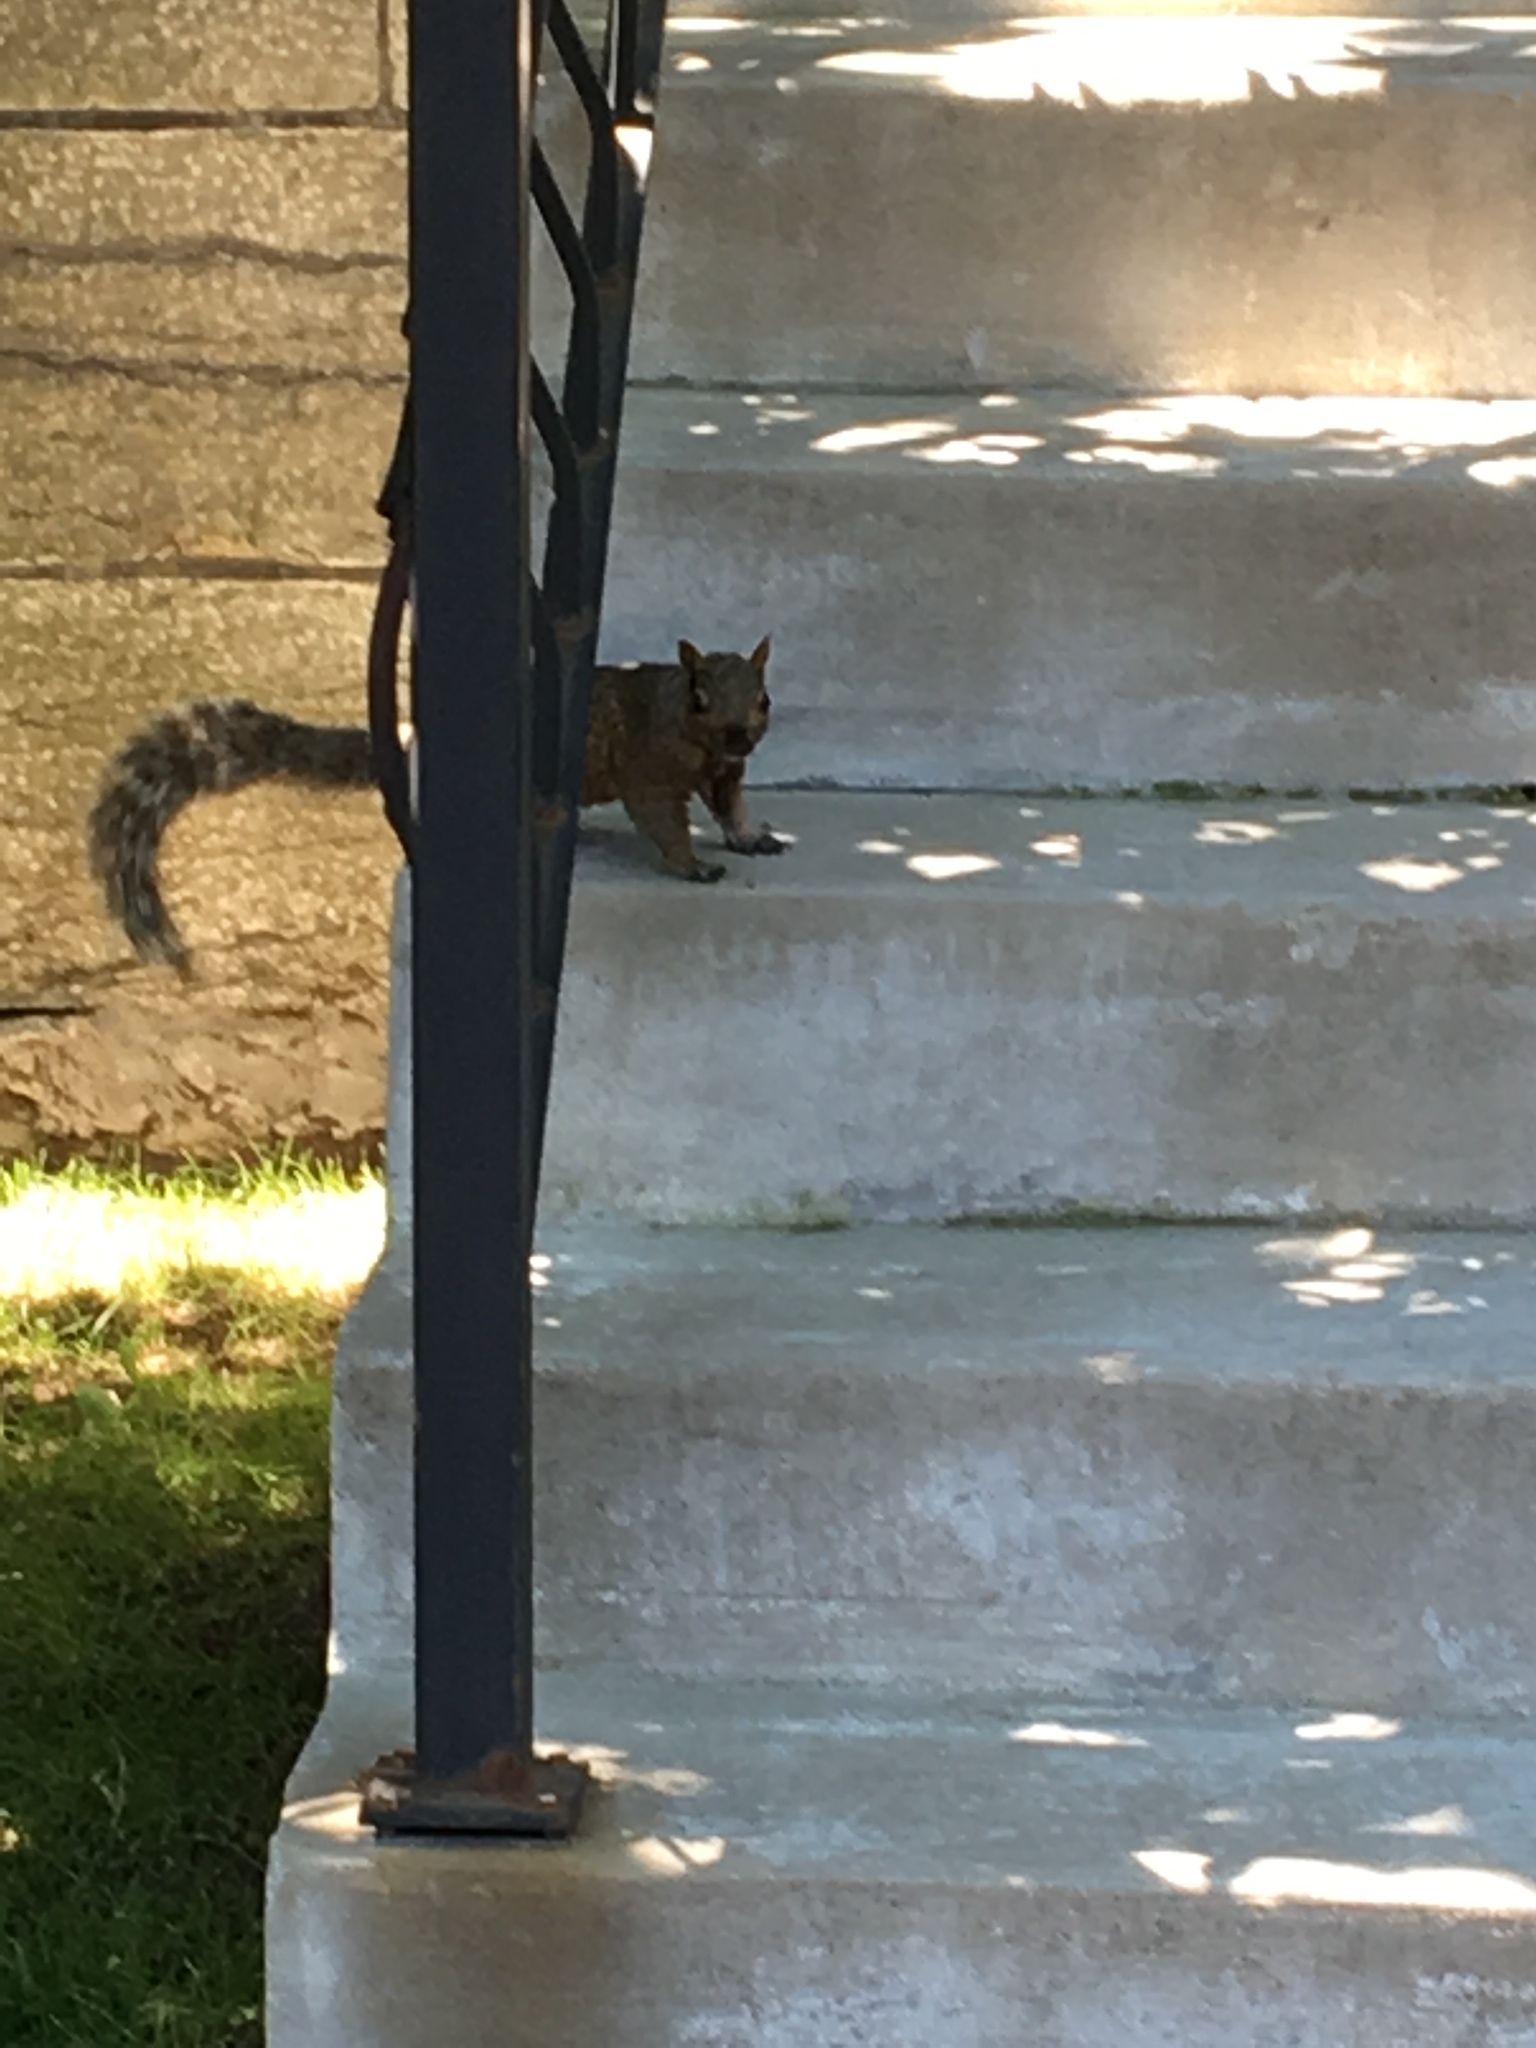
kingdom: Animalia
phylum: Chordata
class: Mammalia
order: Rodentia
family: Sciuridae
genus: Sciurus
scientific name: Sciurus carolinensis
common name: Eastern gray squirrel
